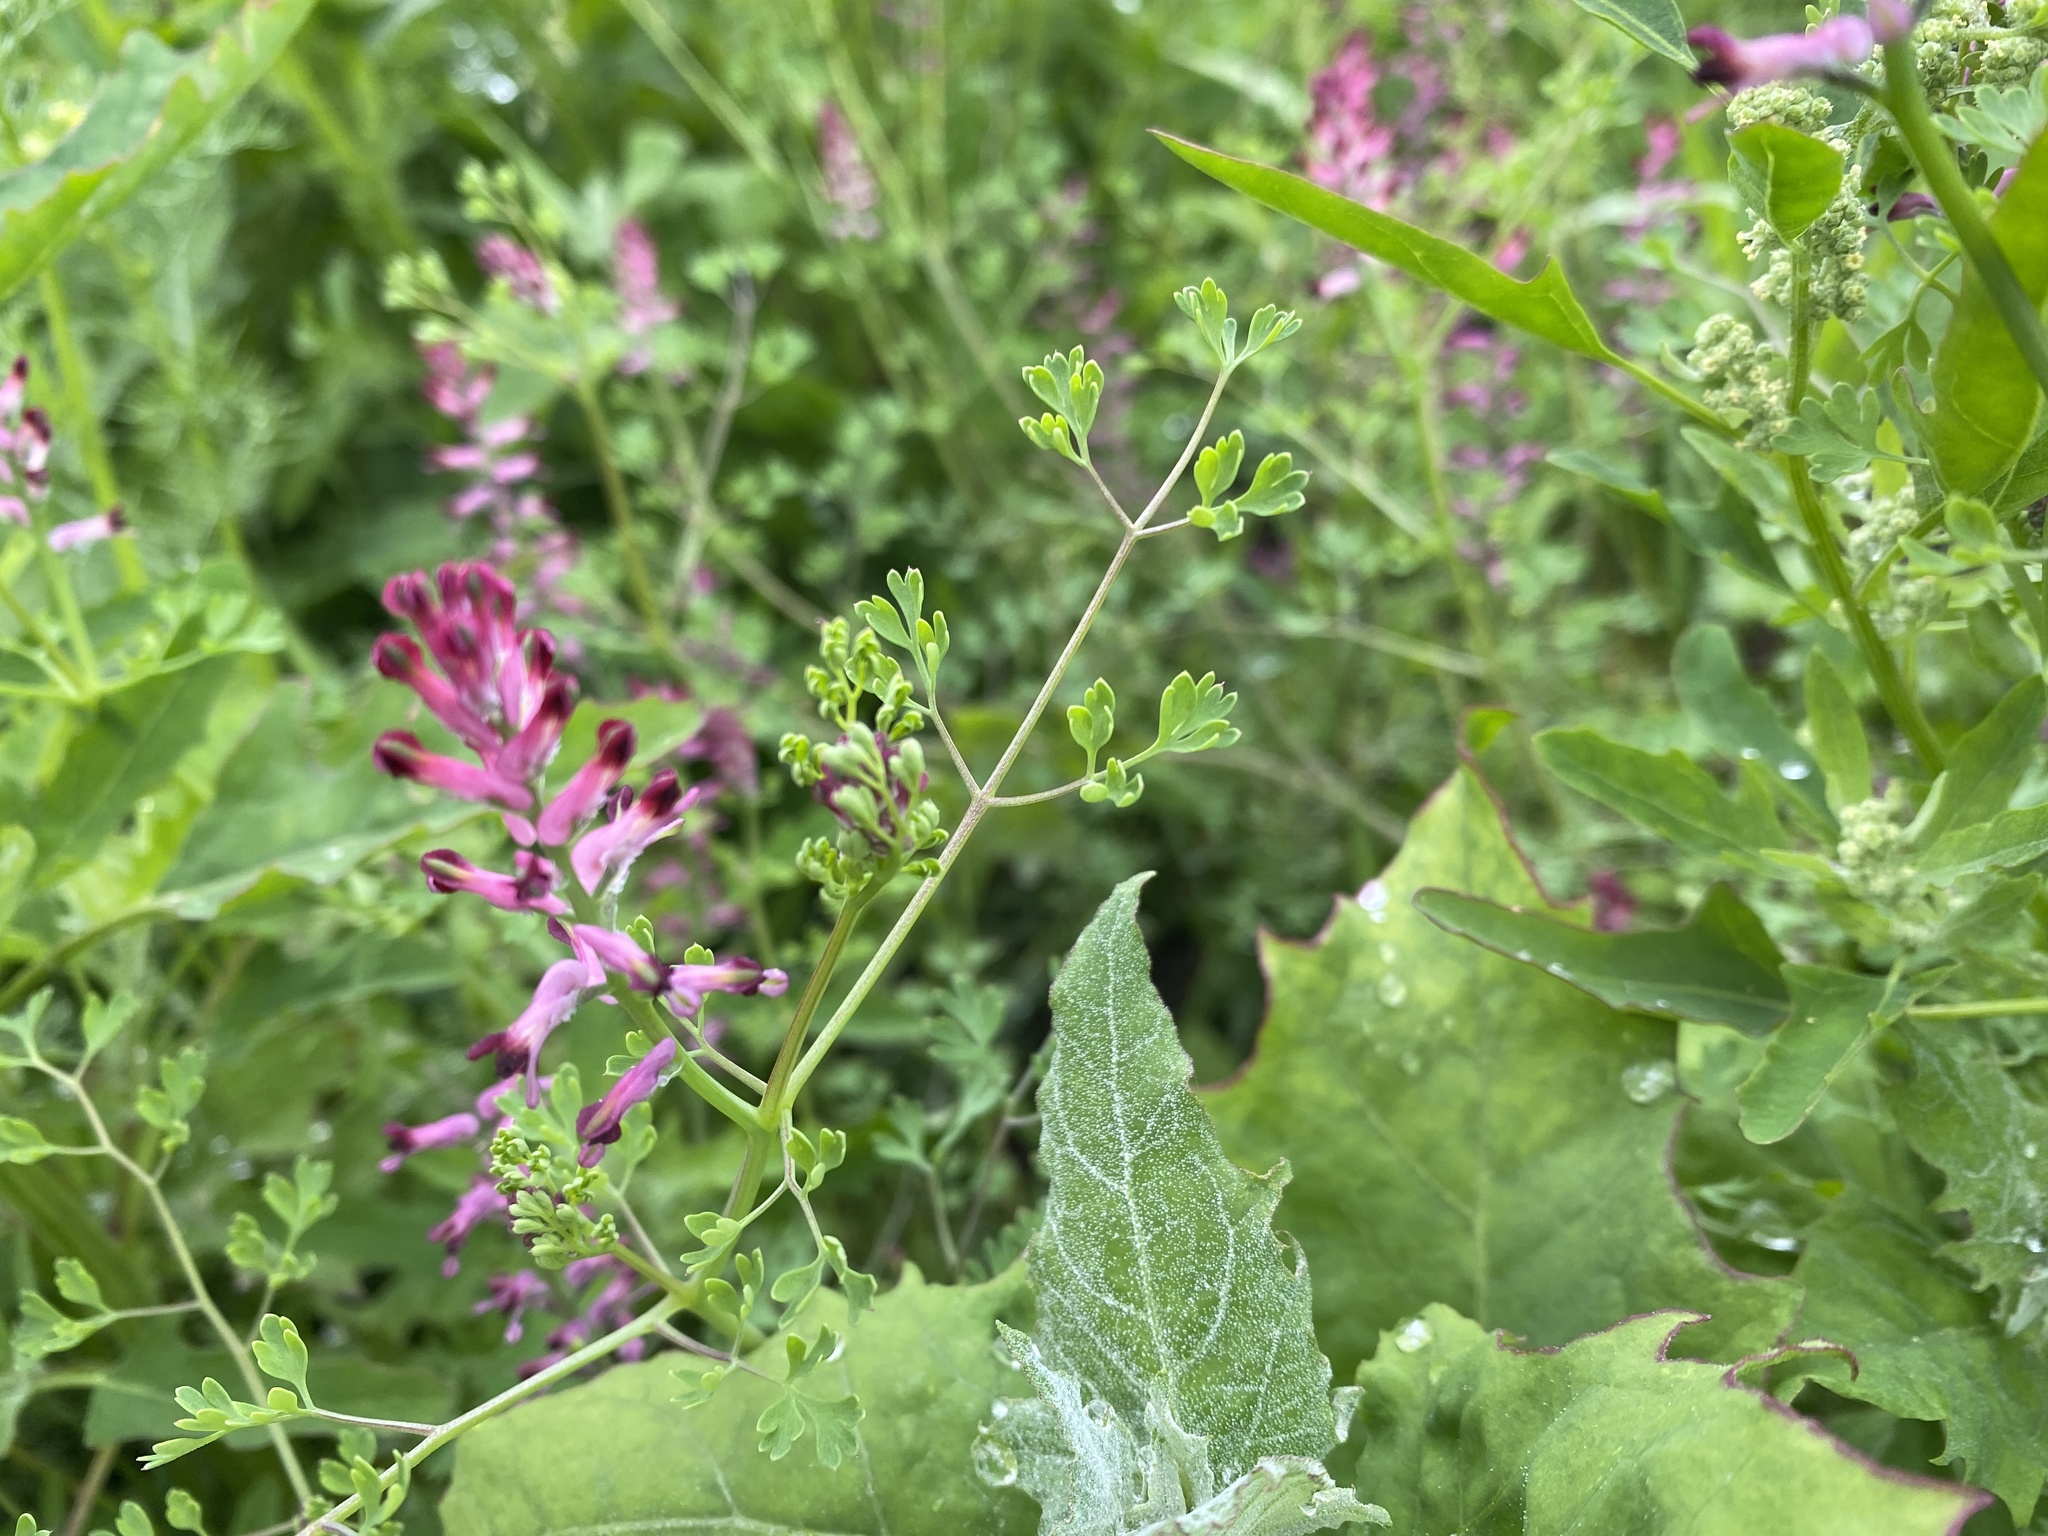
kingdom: Plantae
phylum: Tracheophyta
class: Magnoliopsida
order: Ranunculales
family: Papaveraceae
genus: Fumaria
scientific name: Fumaria officinalis
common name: Common fumitory
